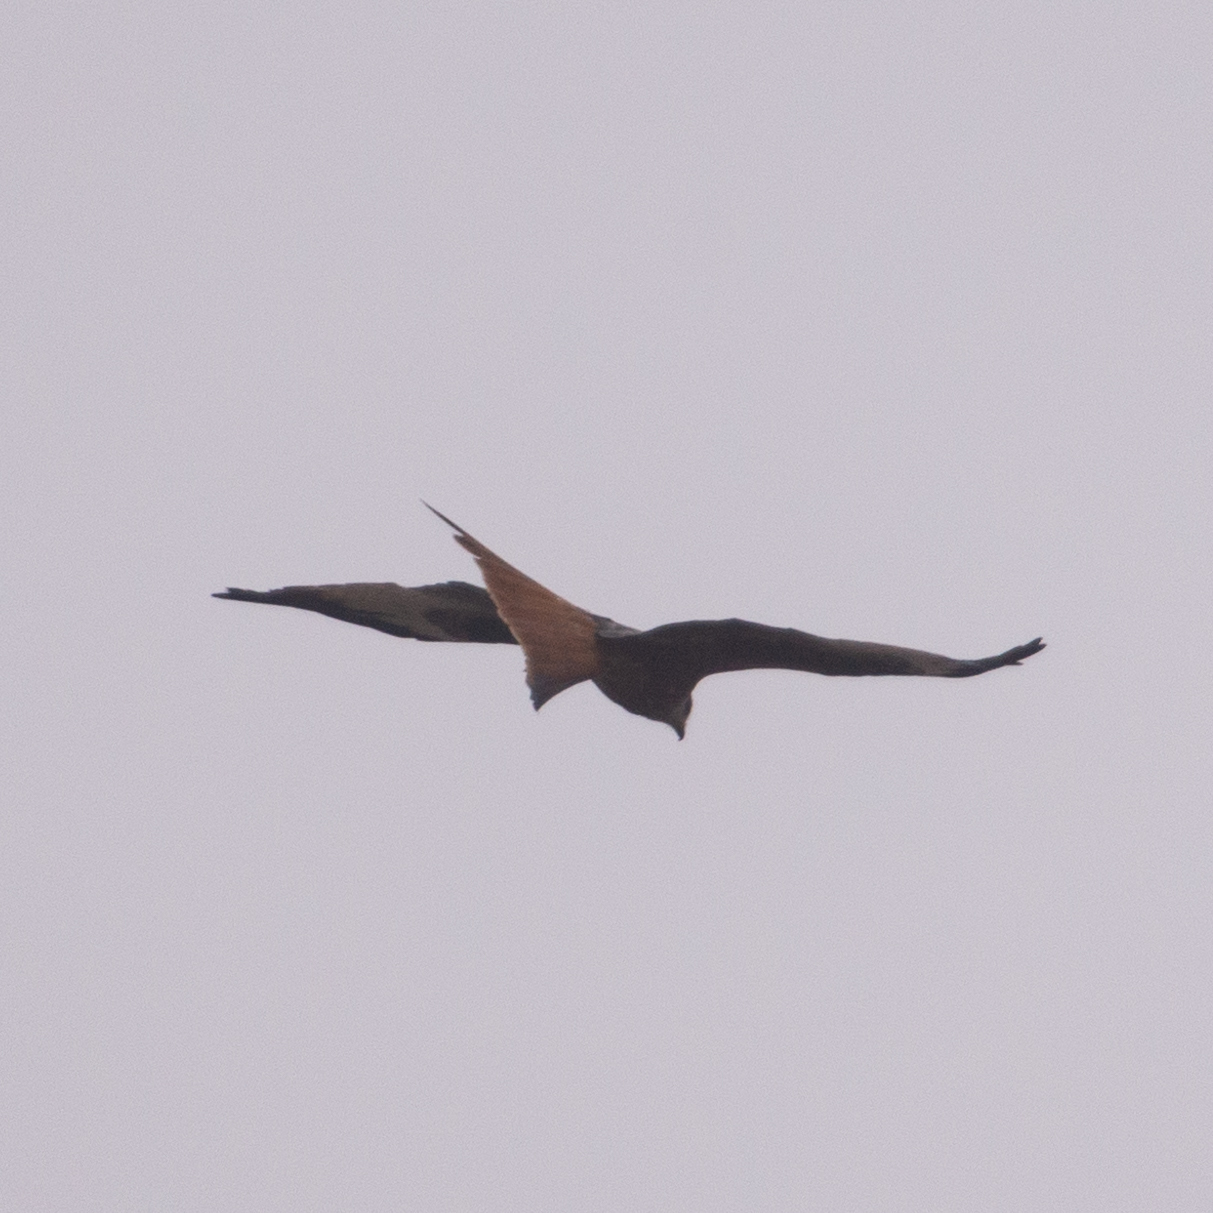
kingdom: Animalia
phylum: Chordata
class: Aves
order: Accipitriformes
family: Accipitridae
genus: Milvus
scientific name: Milvus milvus
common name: Red kite
